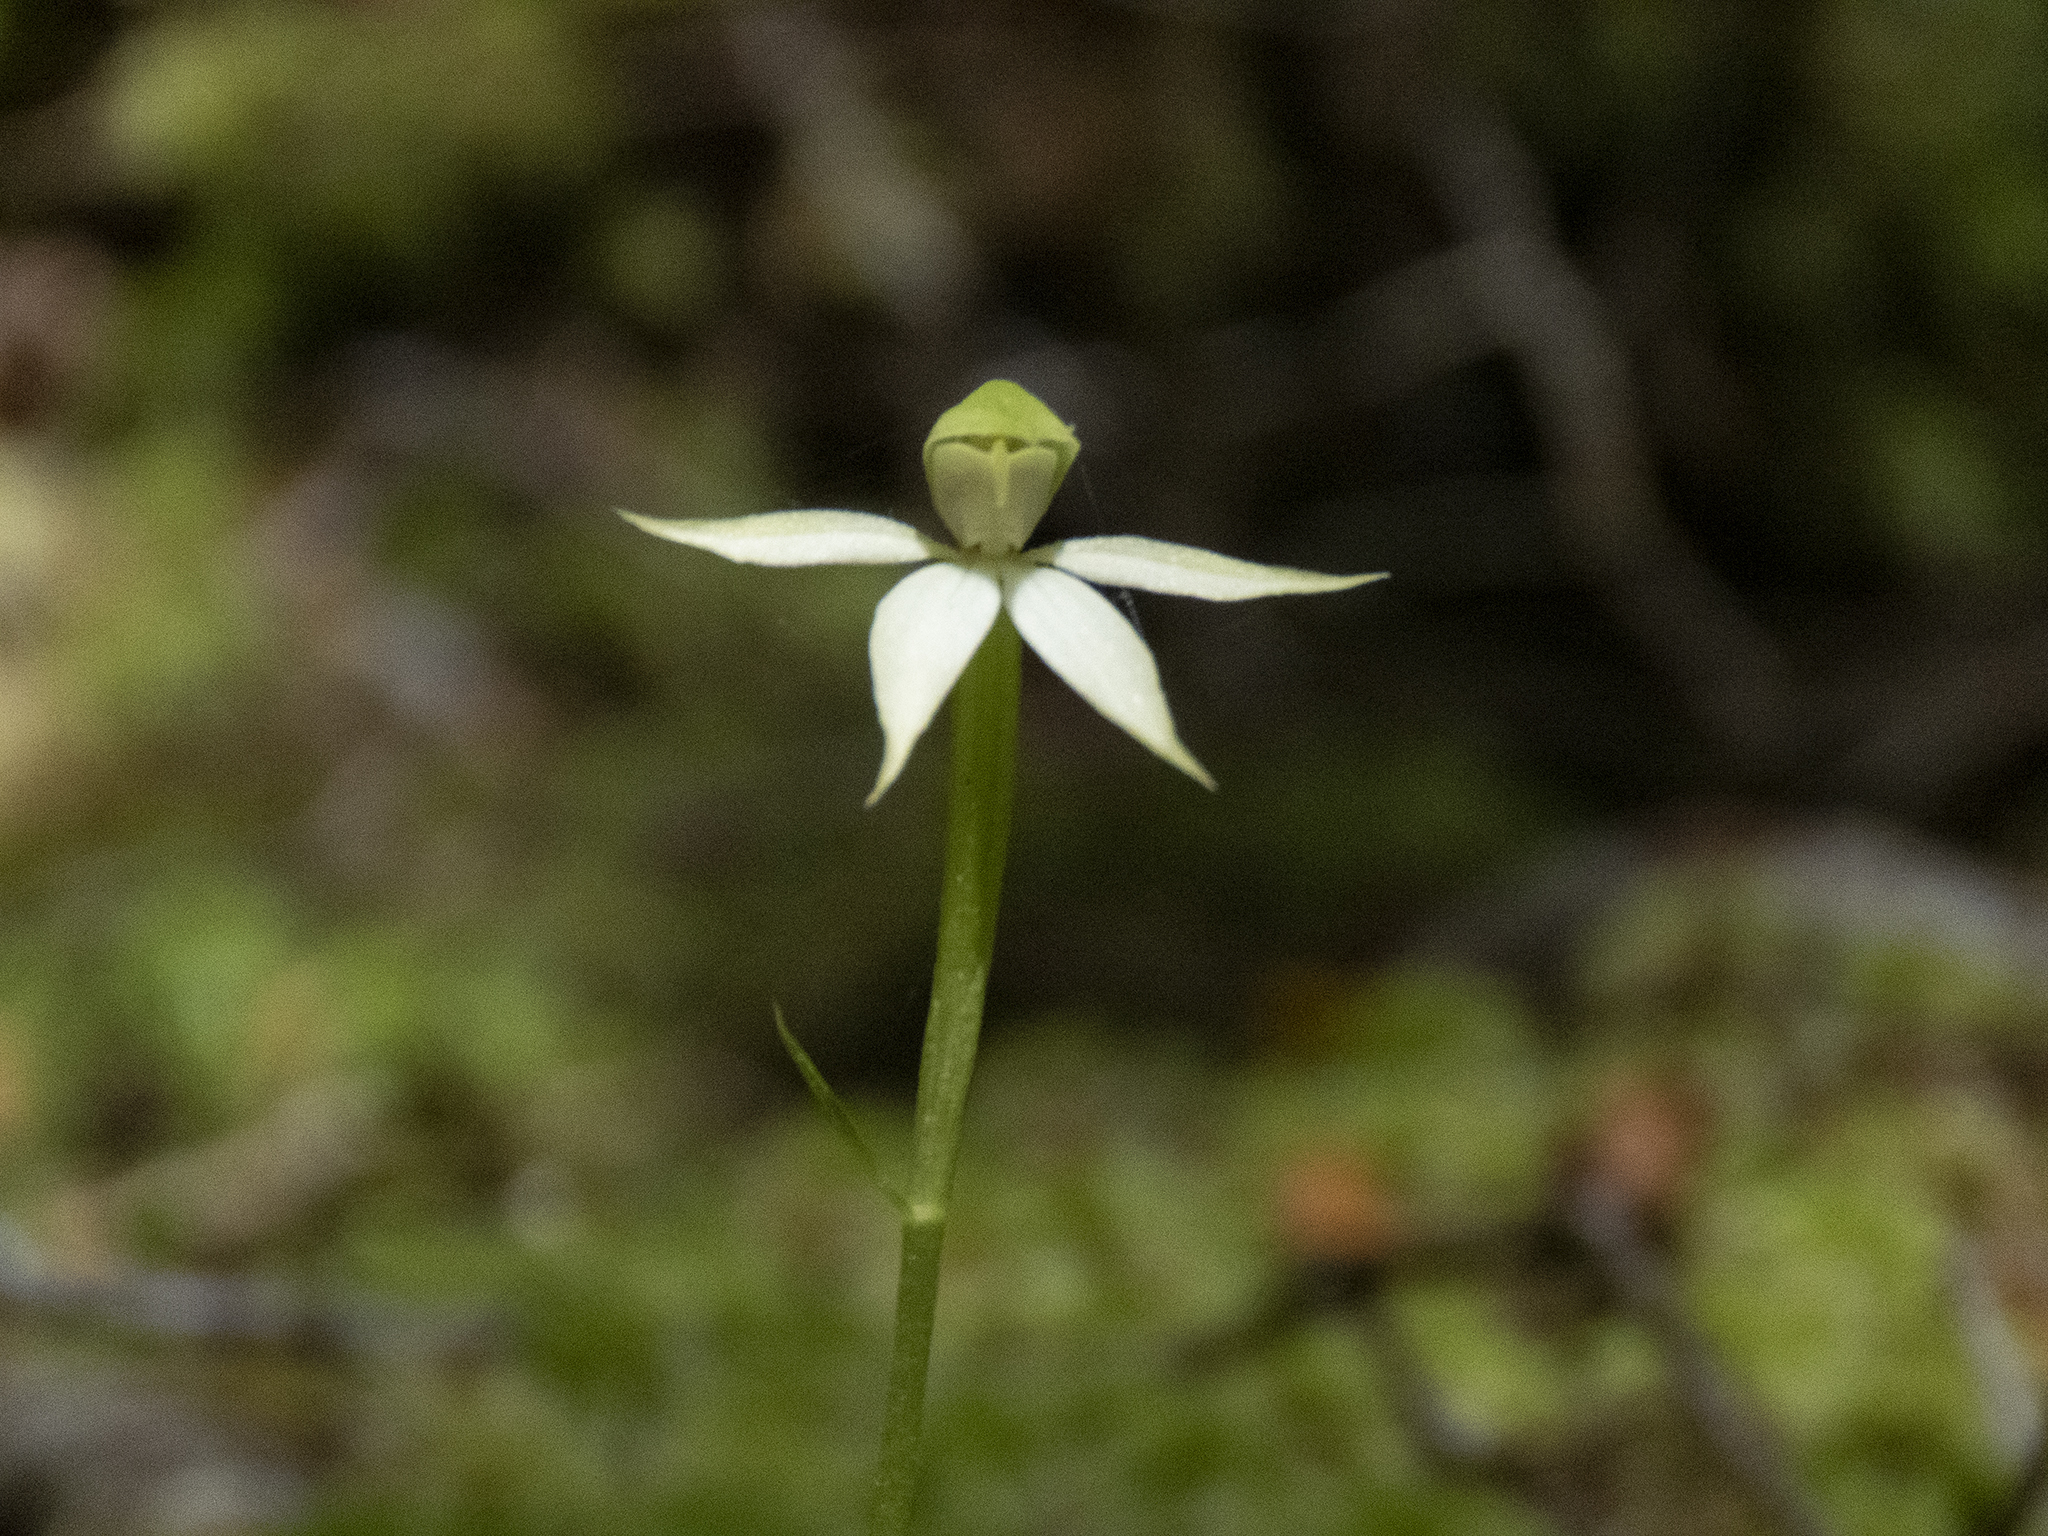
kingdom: Plantae
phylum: Tracheophyta
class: Liliopsida
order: Asparagales
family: Orchidaceae
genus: Adenochilus
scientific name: Adenochilus gracilis
